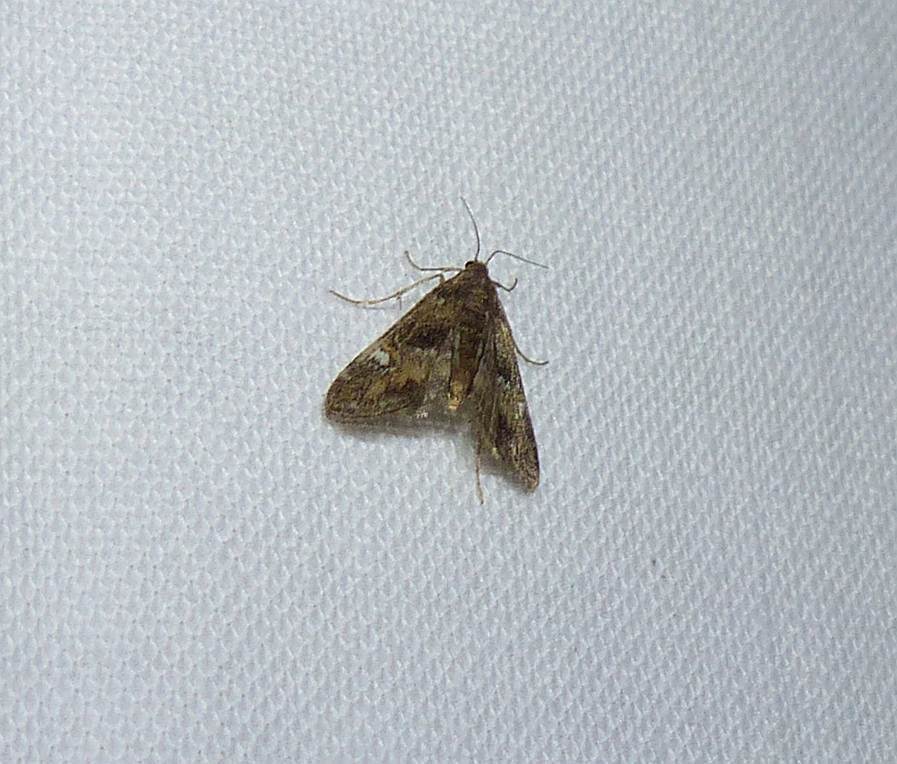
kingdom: Animalia
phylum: Arthropoda
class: Insecta
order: Lepidoptera
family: Crambidae
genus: Elophila
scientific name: Elophila obliteralis
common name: Waterlily leafcutter moth
